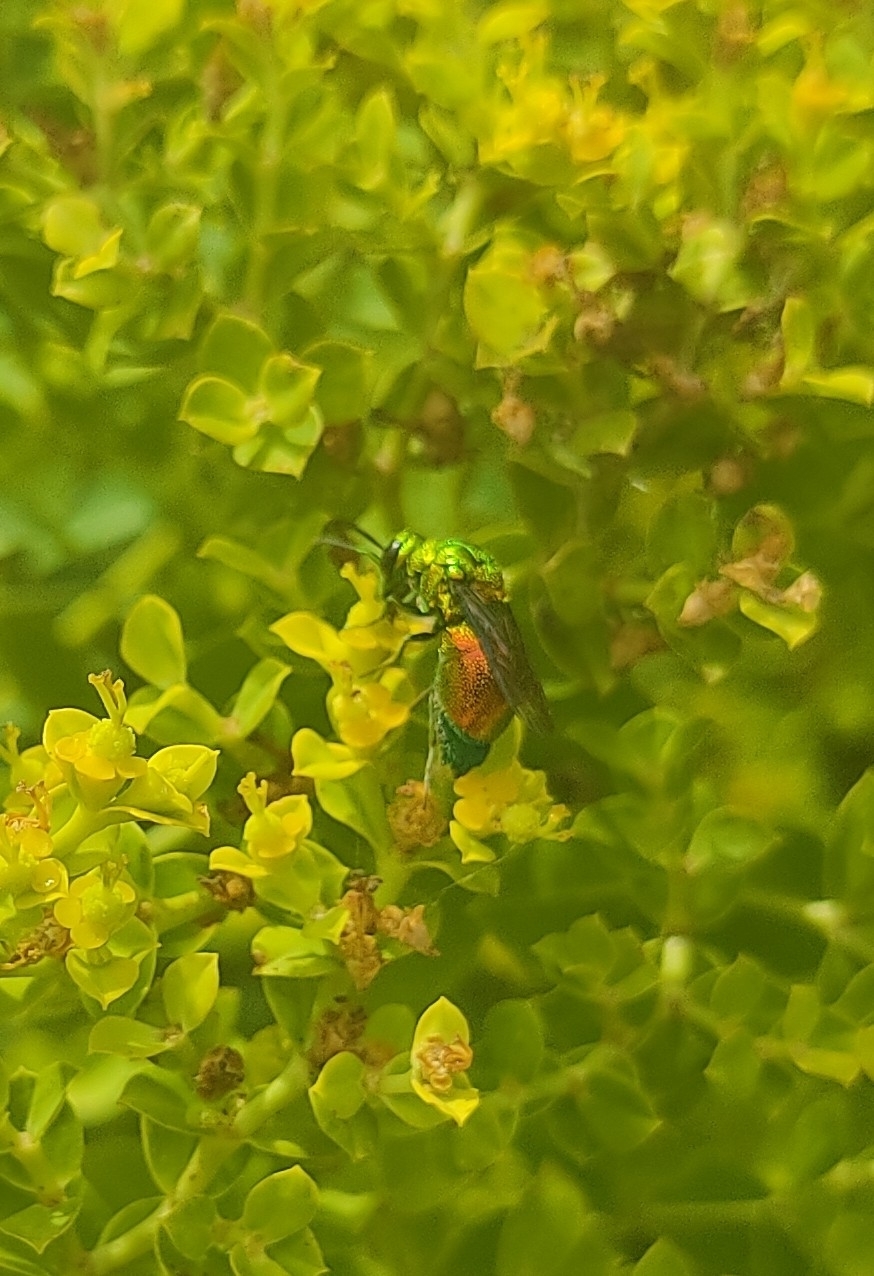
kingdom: Animalia
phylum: Arthropoda
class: Insecta
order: Hymenoptera
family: Chrysididae
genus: Stilbum
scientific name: Stilbum cyanurum
